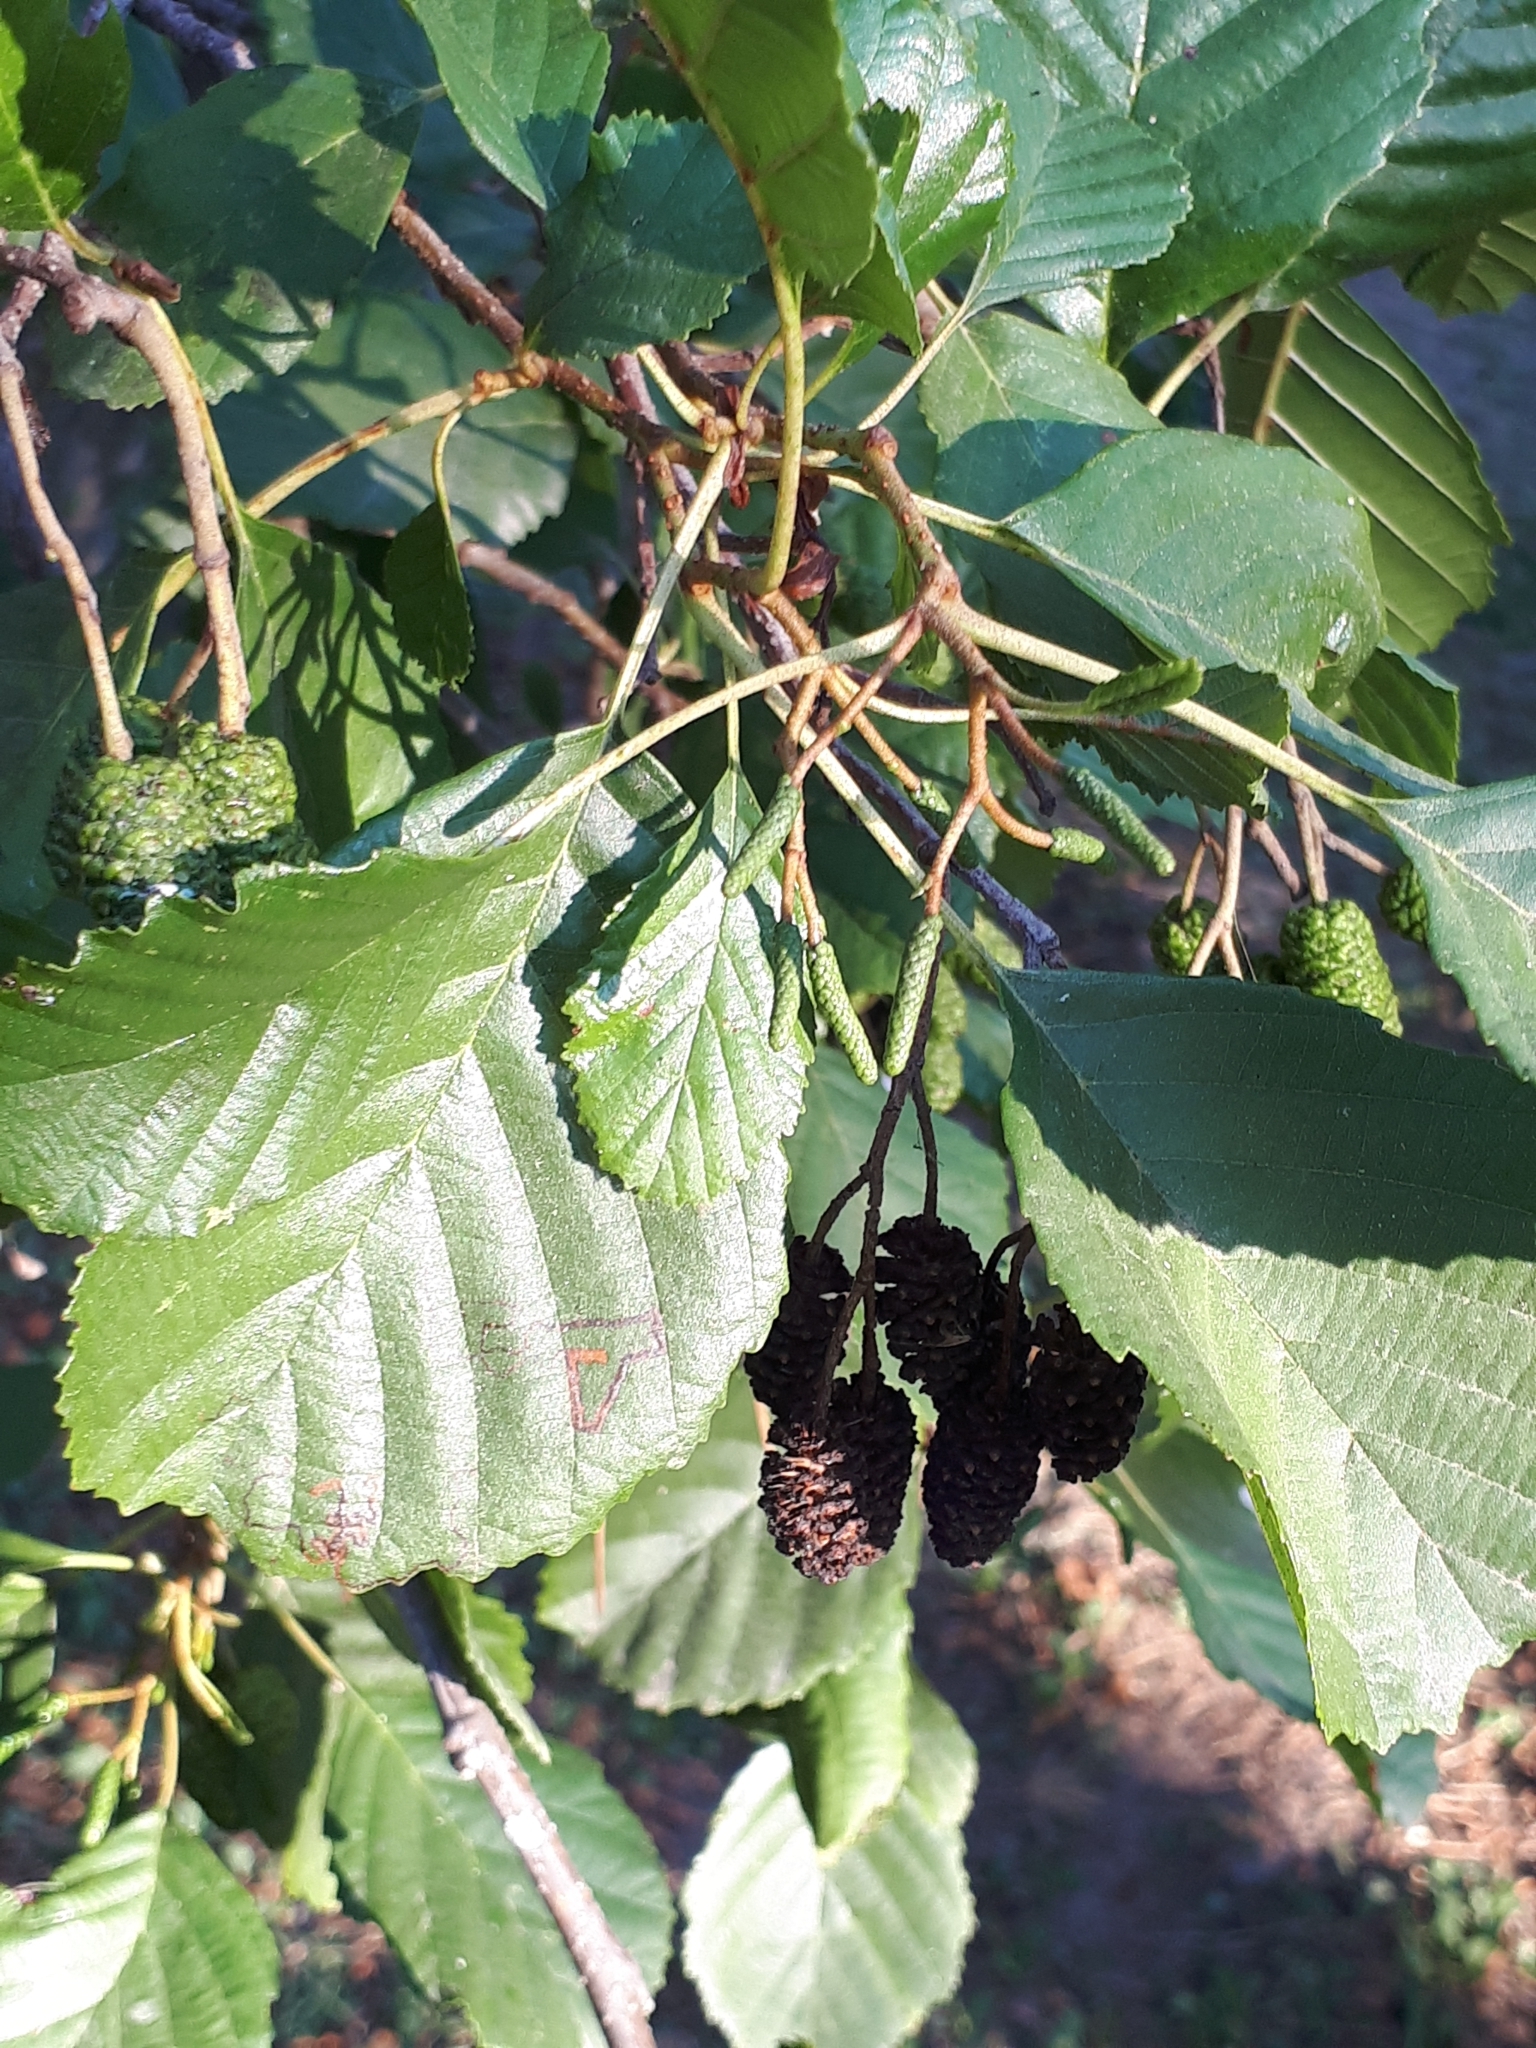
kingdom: Plantae
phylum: Tracheophyta
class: Magnoliopsida
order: Fagales
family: Betulaceae
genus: Alnus
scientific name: Alnus glutinosa
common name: Black alder
